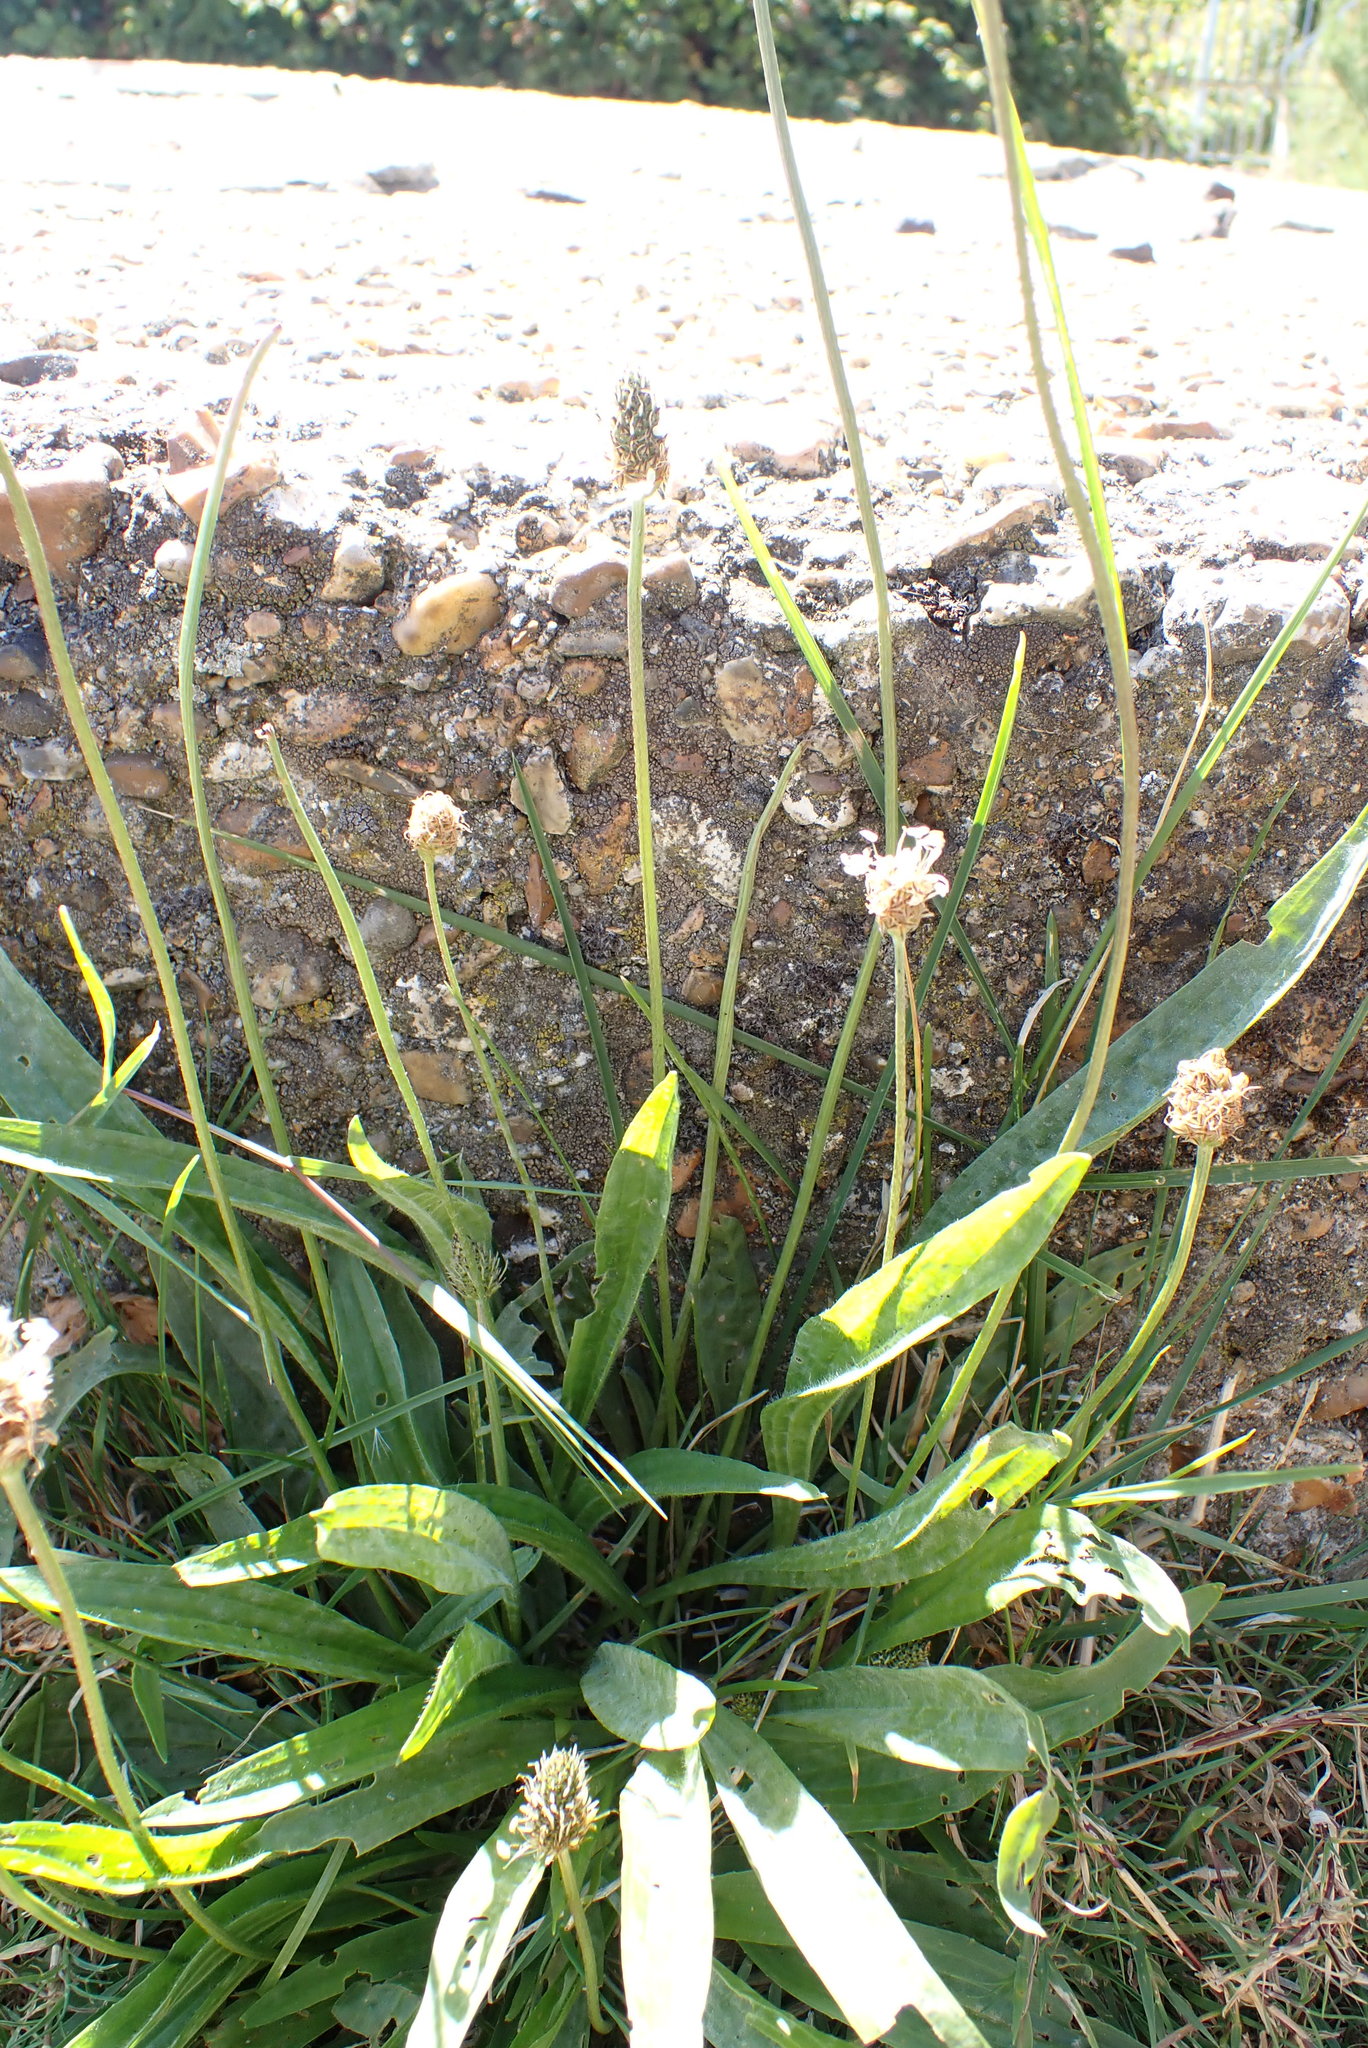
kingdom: Plantae
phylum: Tracheophyta
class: Magnoliopsida
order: Lamiales
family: Plantaginaceae
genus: Plantago
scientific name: Plantago lanceolata
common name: Ribwort plantain
